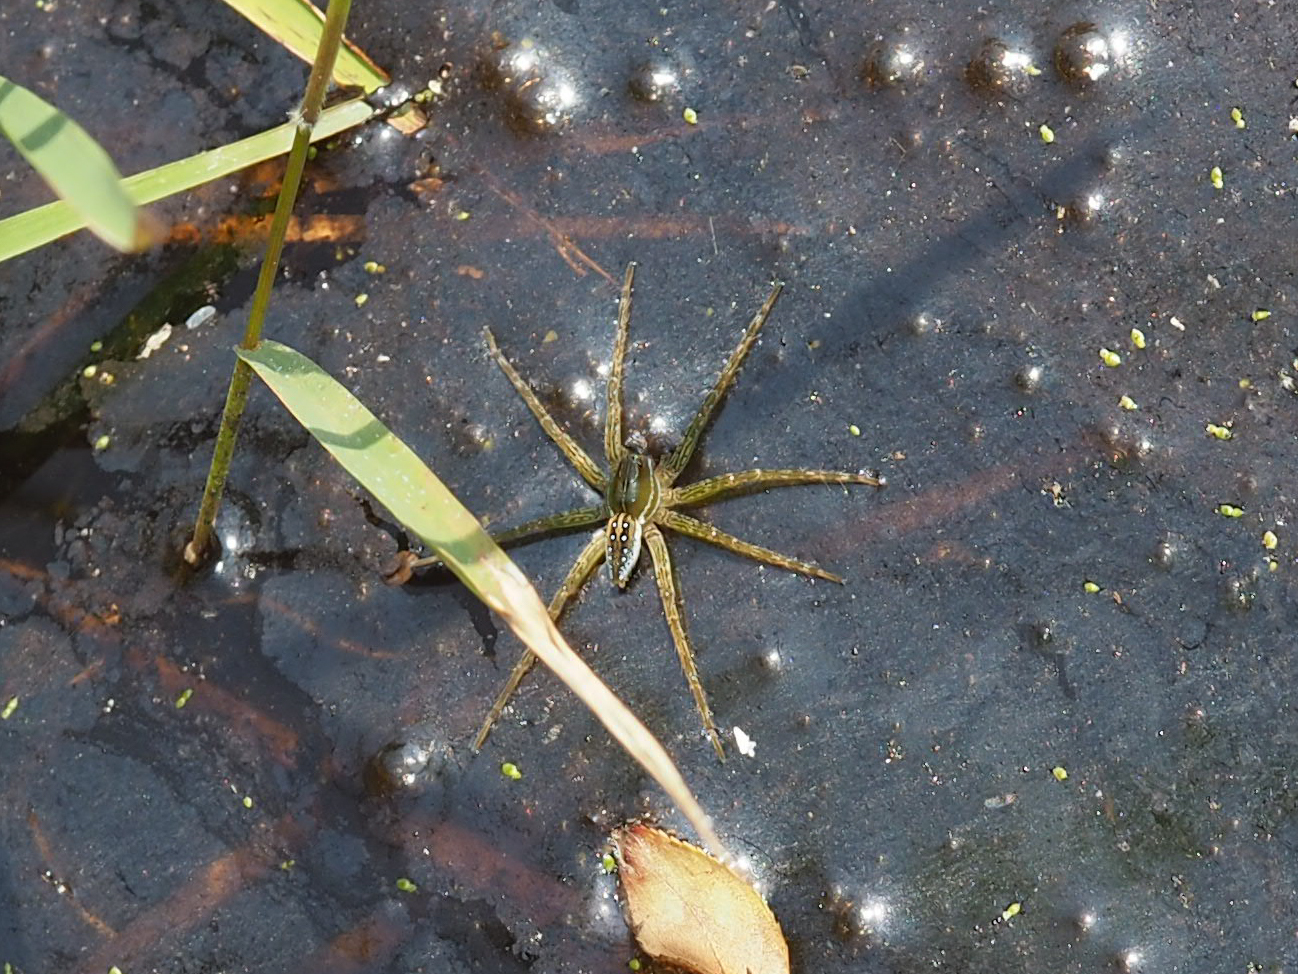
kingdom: Animalia
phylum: Arthropoda
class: Arachnida
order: Araneae
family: Pisauridae
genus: Dolomedes
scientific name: Dolomedes triton
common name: Six-spotted fishing spider
